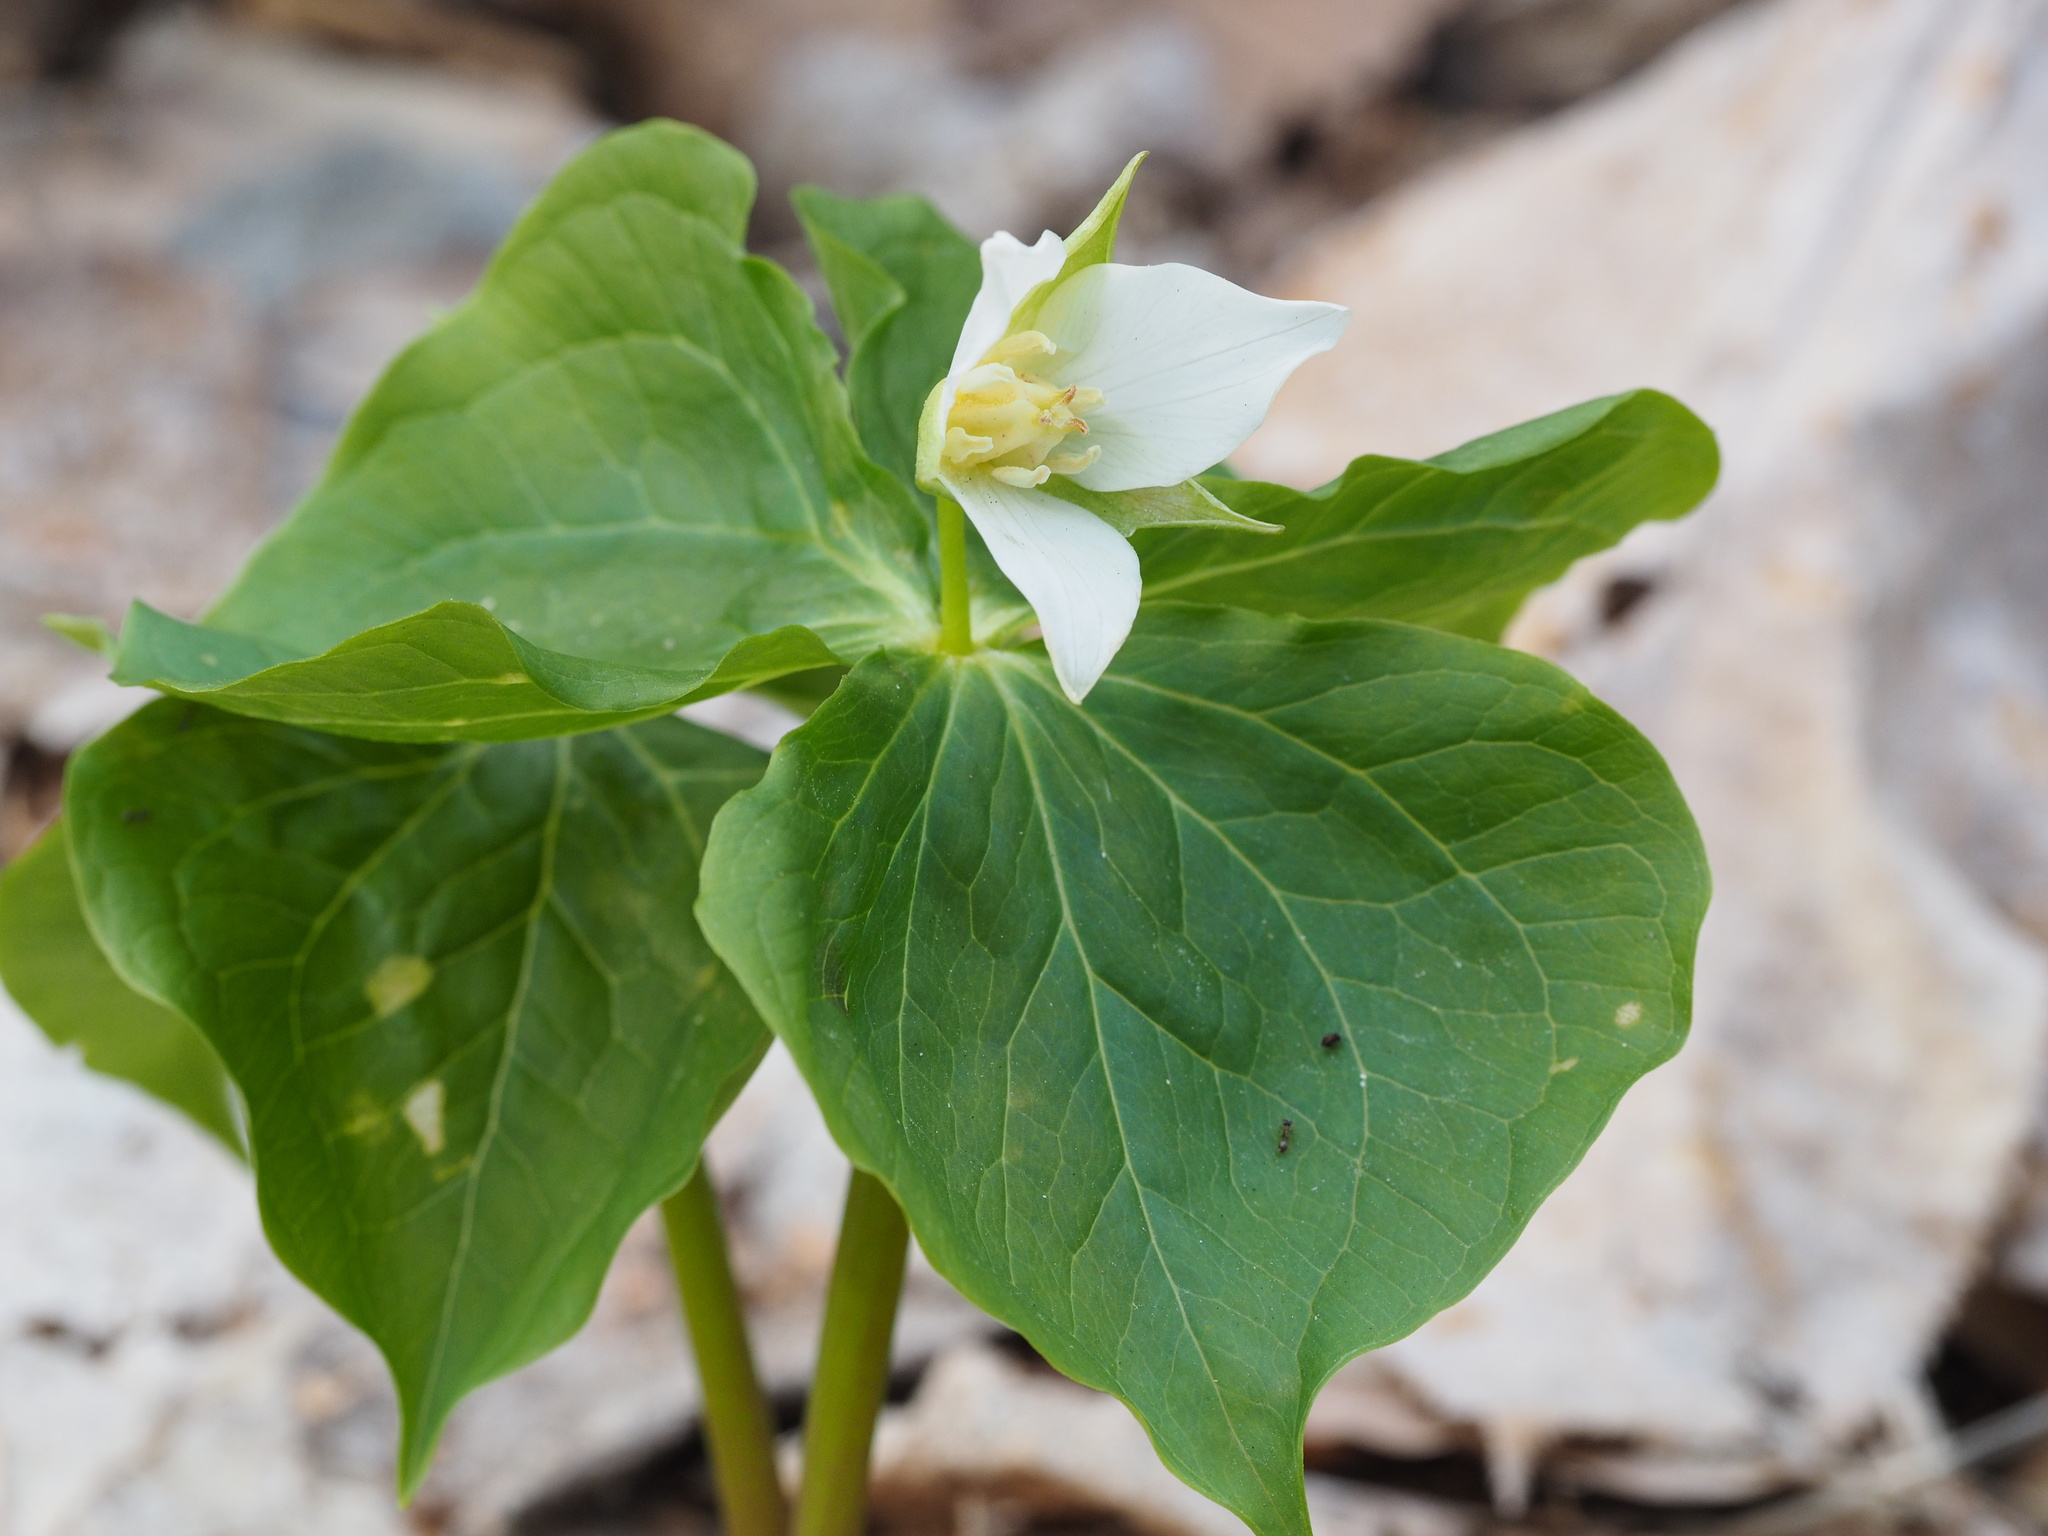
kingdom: Plantae
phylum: Tracheophyta
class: Liliopsida
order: Liliales
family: Melanthiaceae
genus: Trillium
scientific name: Trillium tschonoskii
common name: A pearl on head
